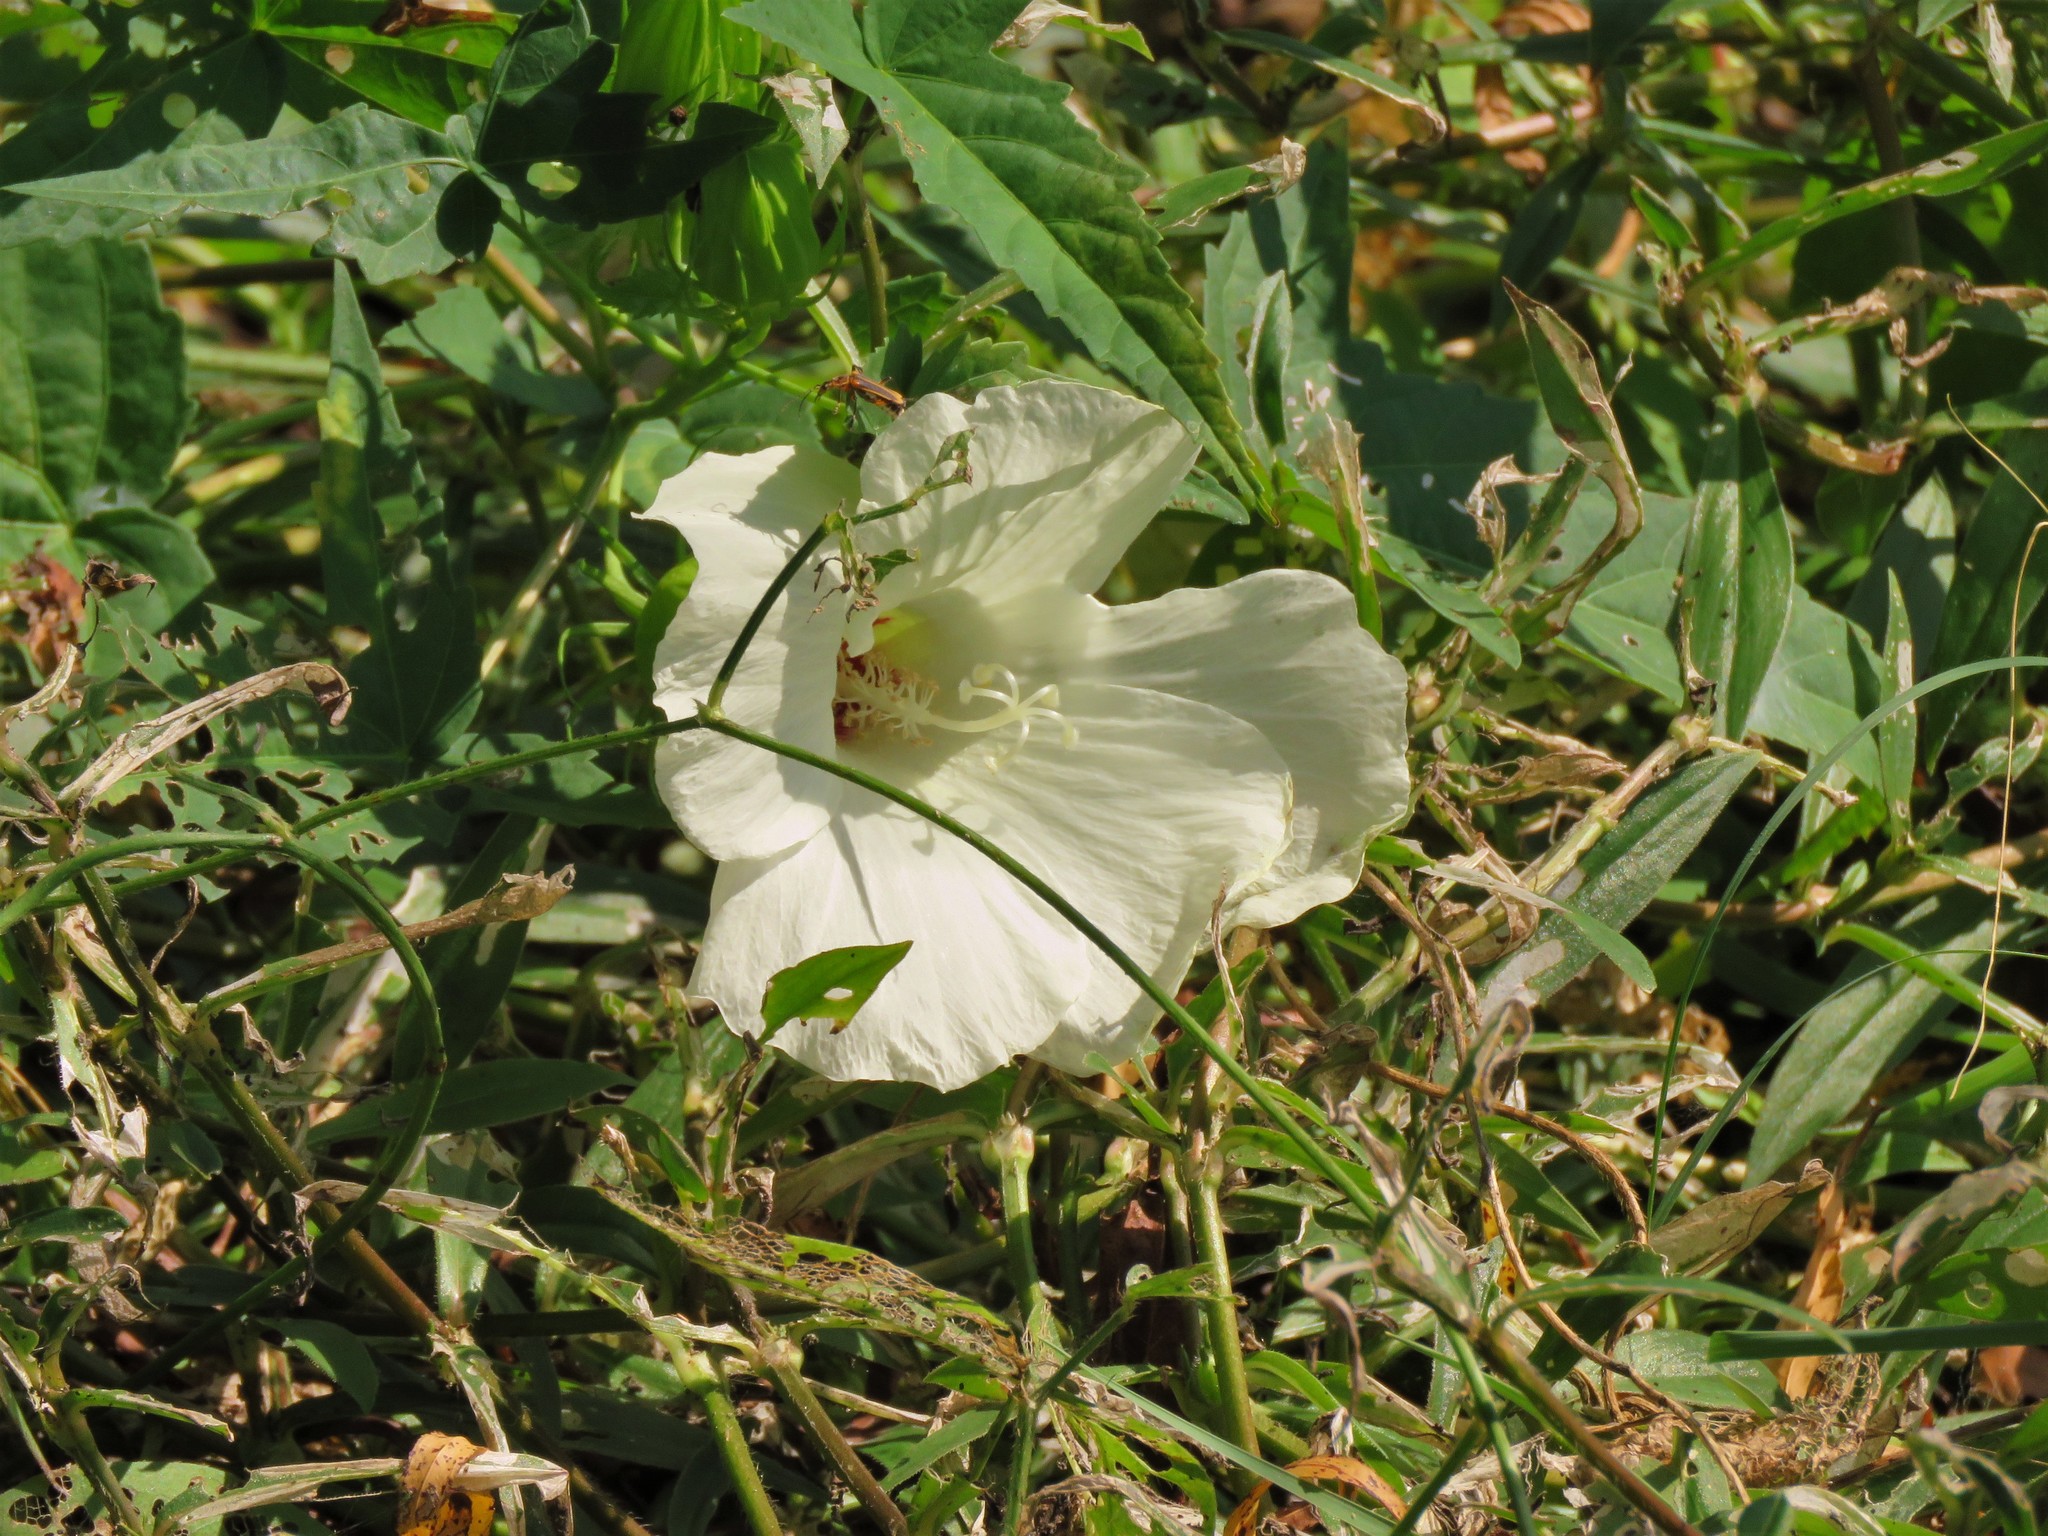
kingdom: Plantae
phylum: Tracheophyta
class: Magnoliopsida
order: Malvales
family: Malvaceae
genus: Hibiscus
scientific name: Hibiscus laevis
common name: Scarlet rose-mallow
